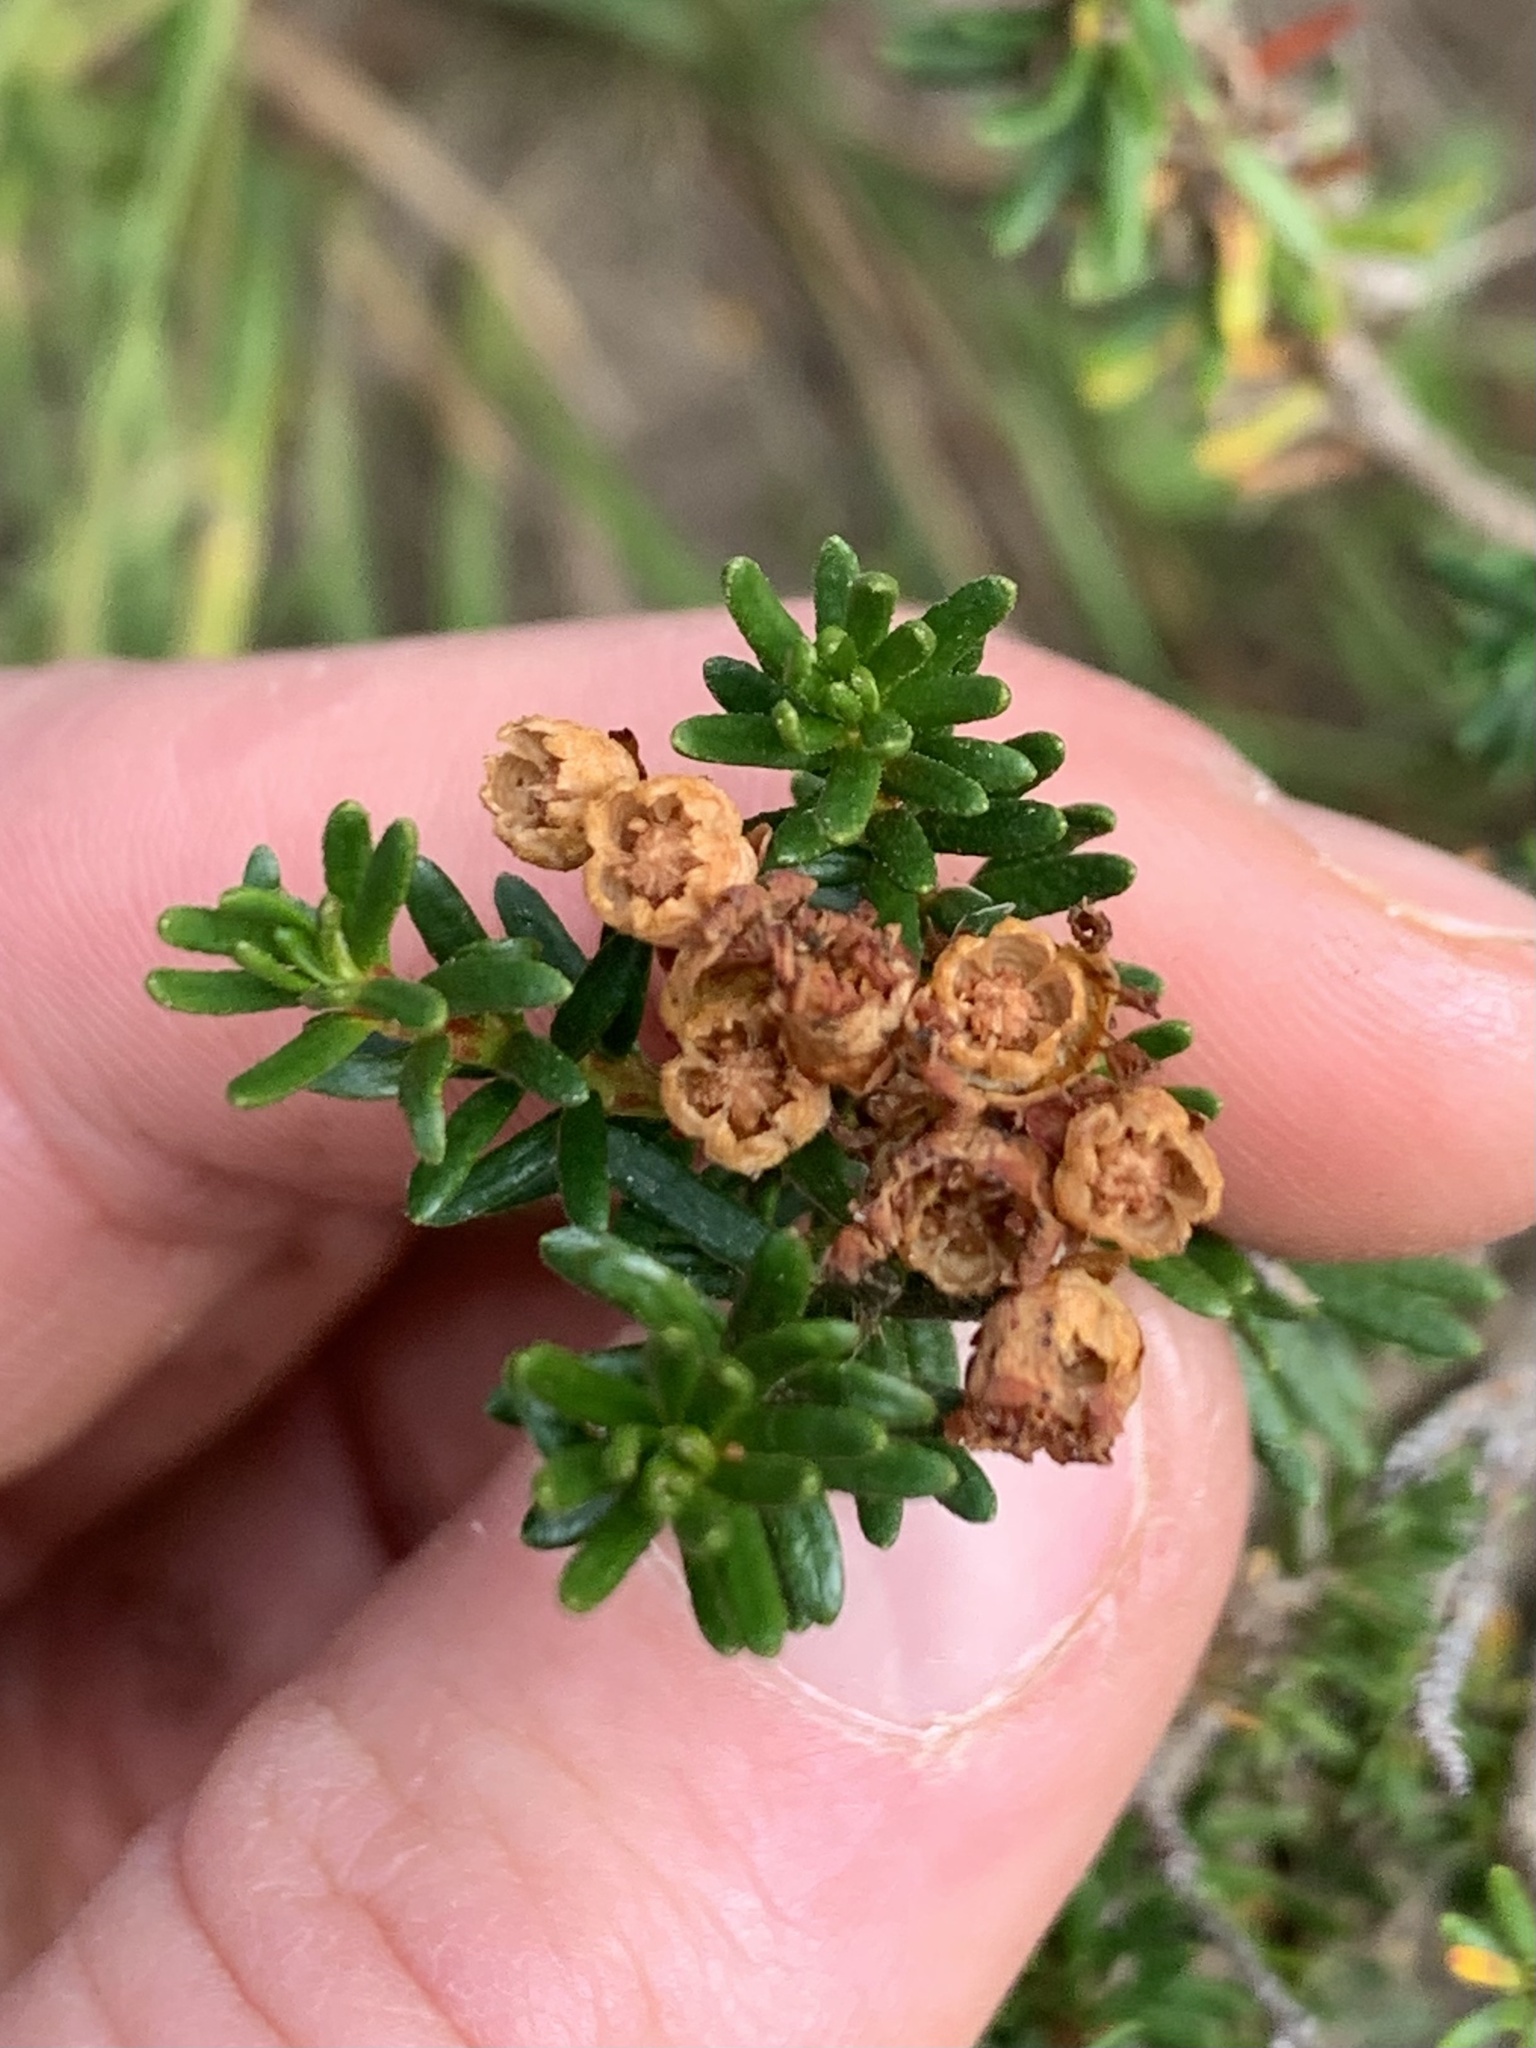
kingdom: Plantae
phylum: Tracheophyta
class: Magnoliopsida
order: Ericales
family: Ericaceae
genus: Phyllodoce
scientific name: Phyllodoce empetriformis
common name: Pink mountain heather
